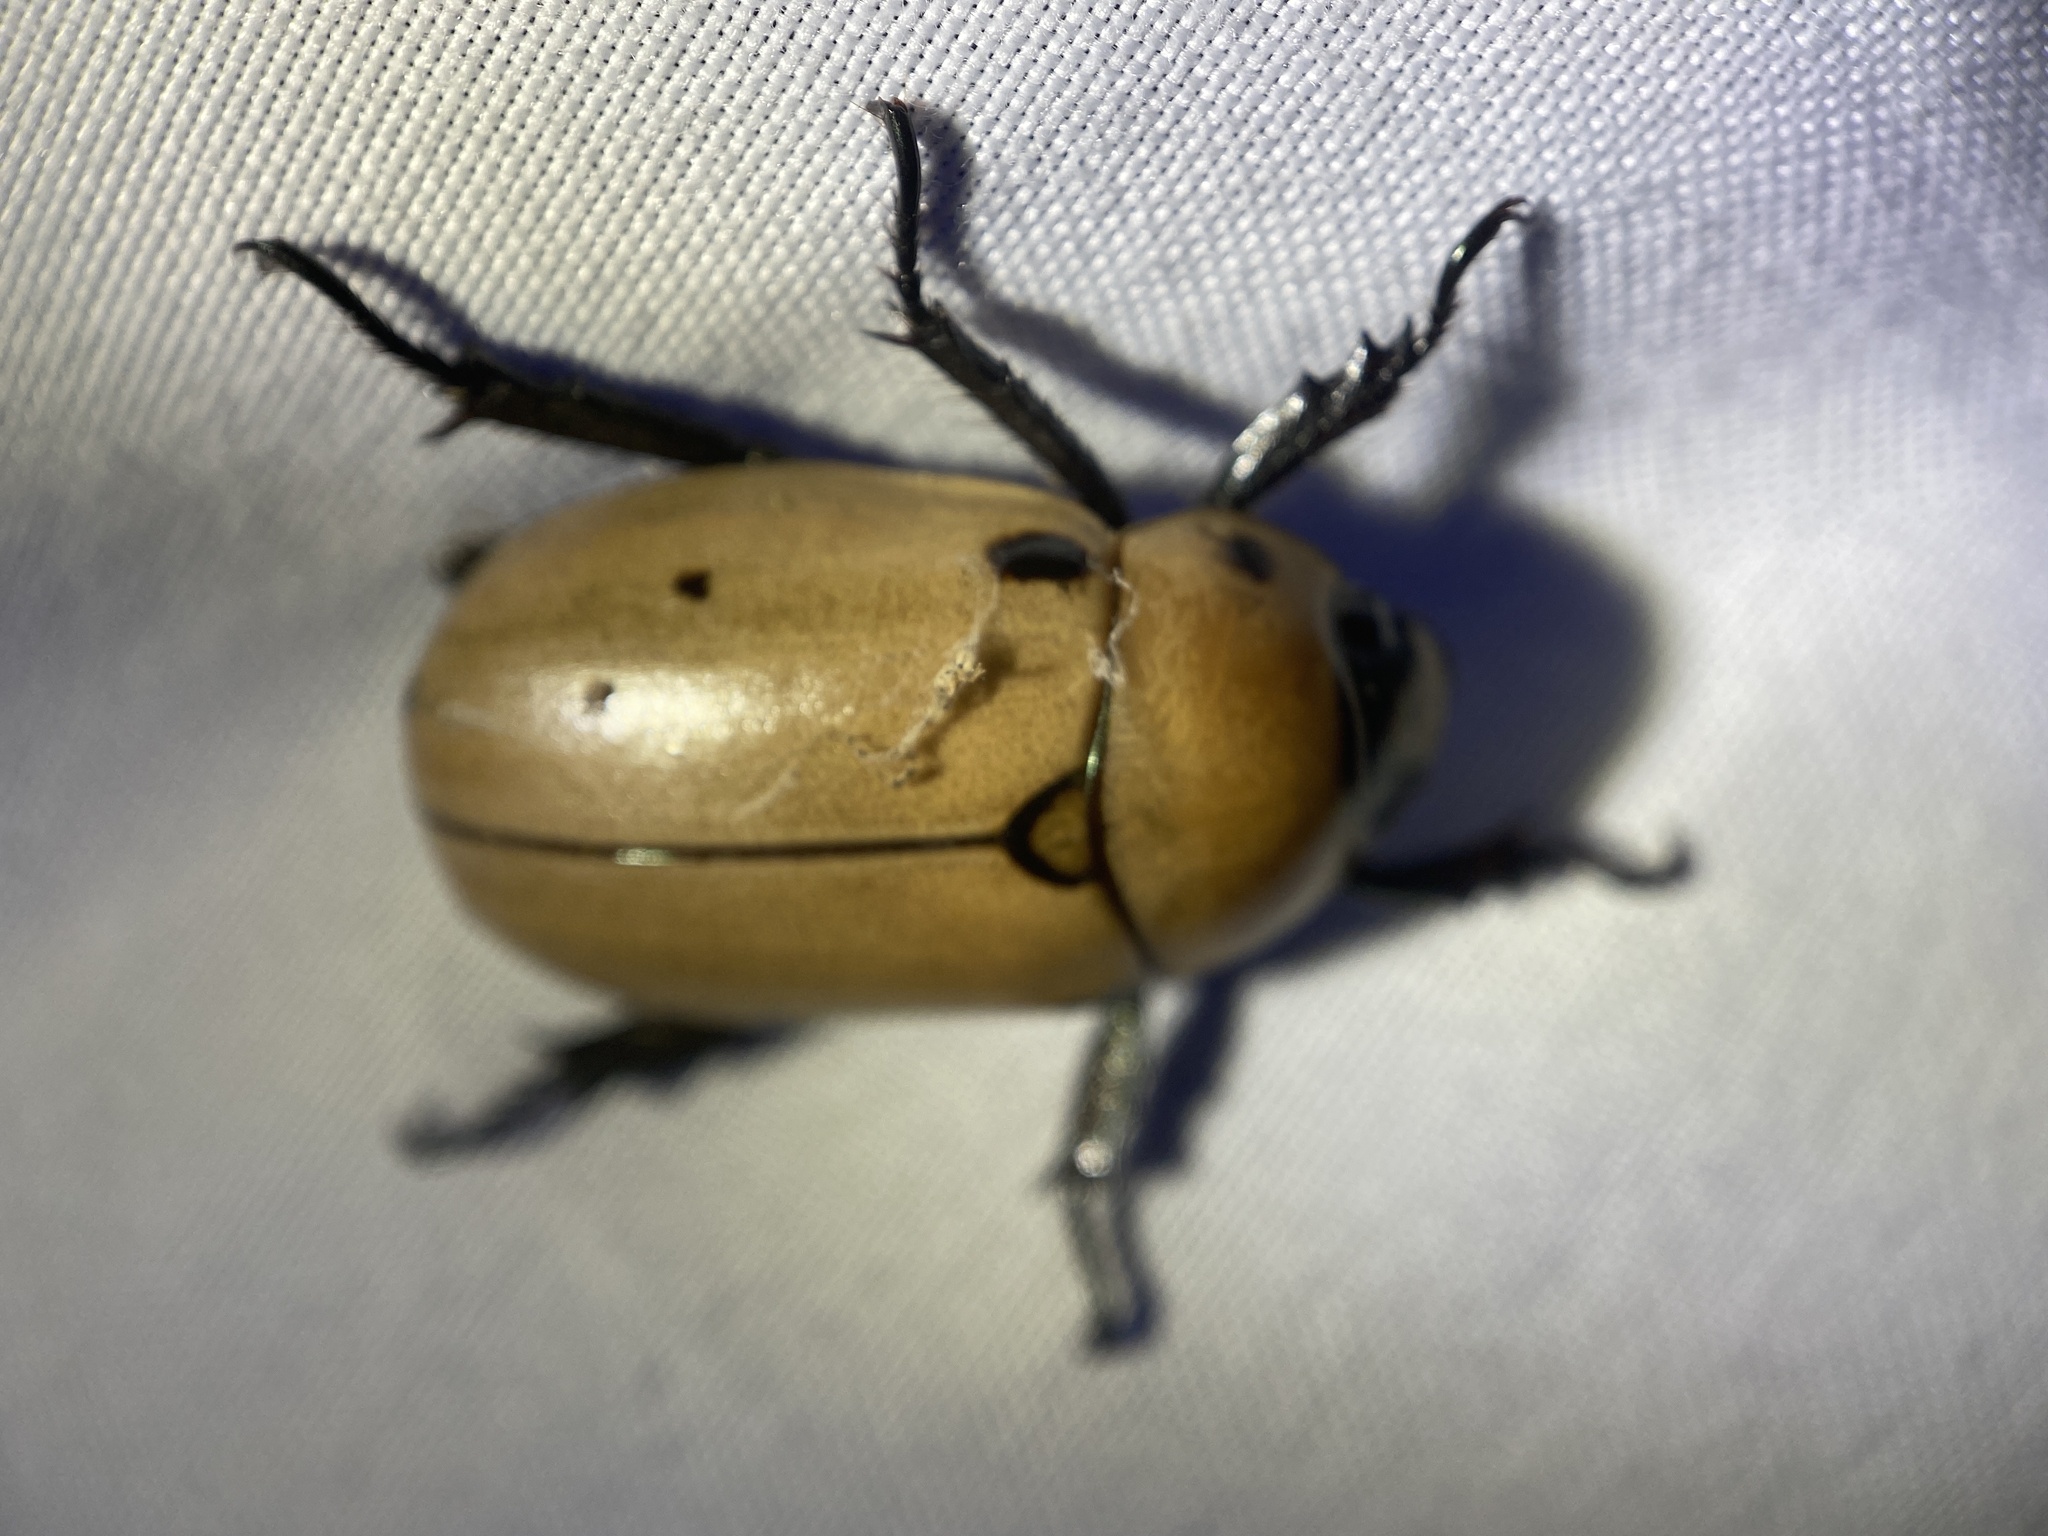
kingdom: Animalia
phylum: Arthropoda
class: Insecta
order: Coleoptera
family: Scarabaeidae
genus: Pelidnota
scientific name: Pelidnota punctata
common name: Grapevine beetle
